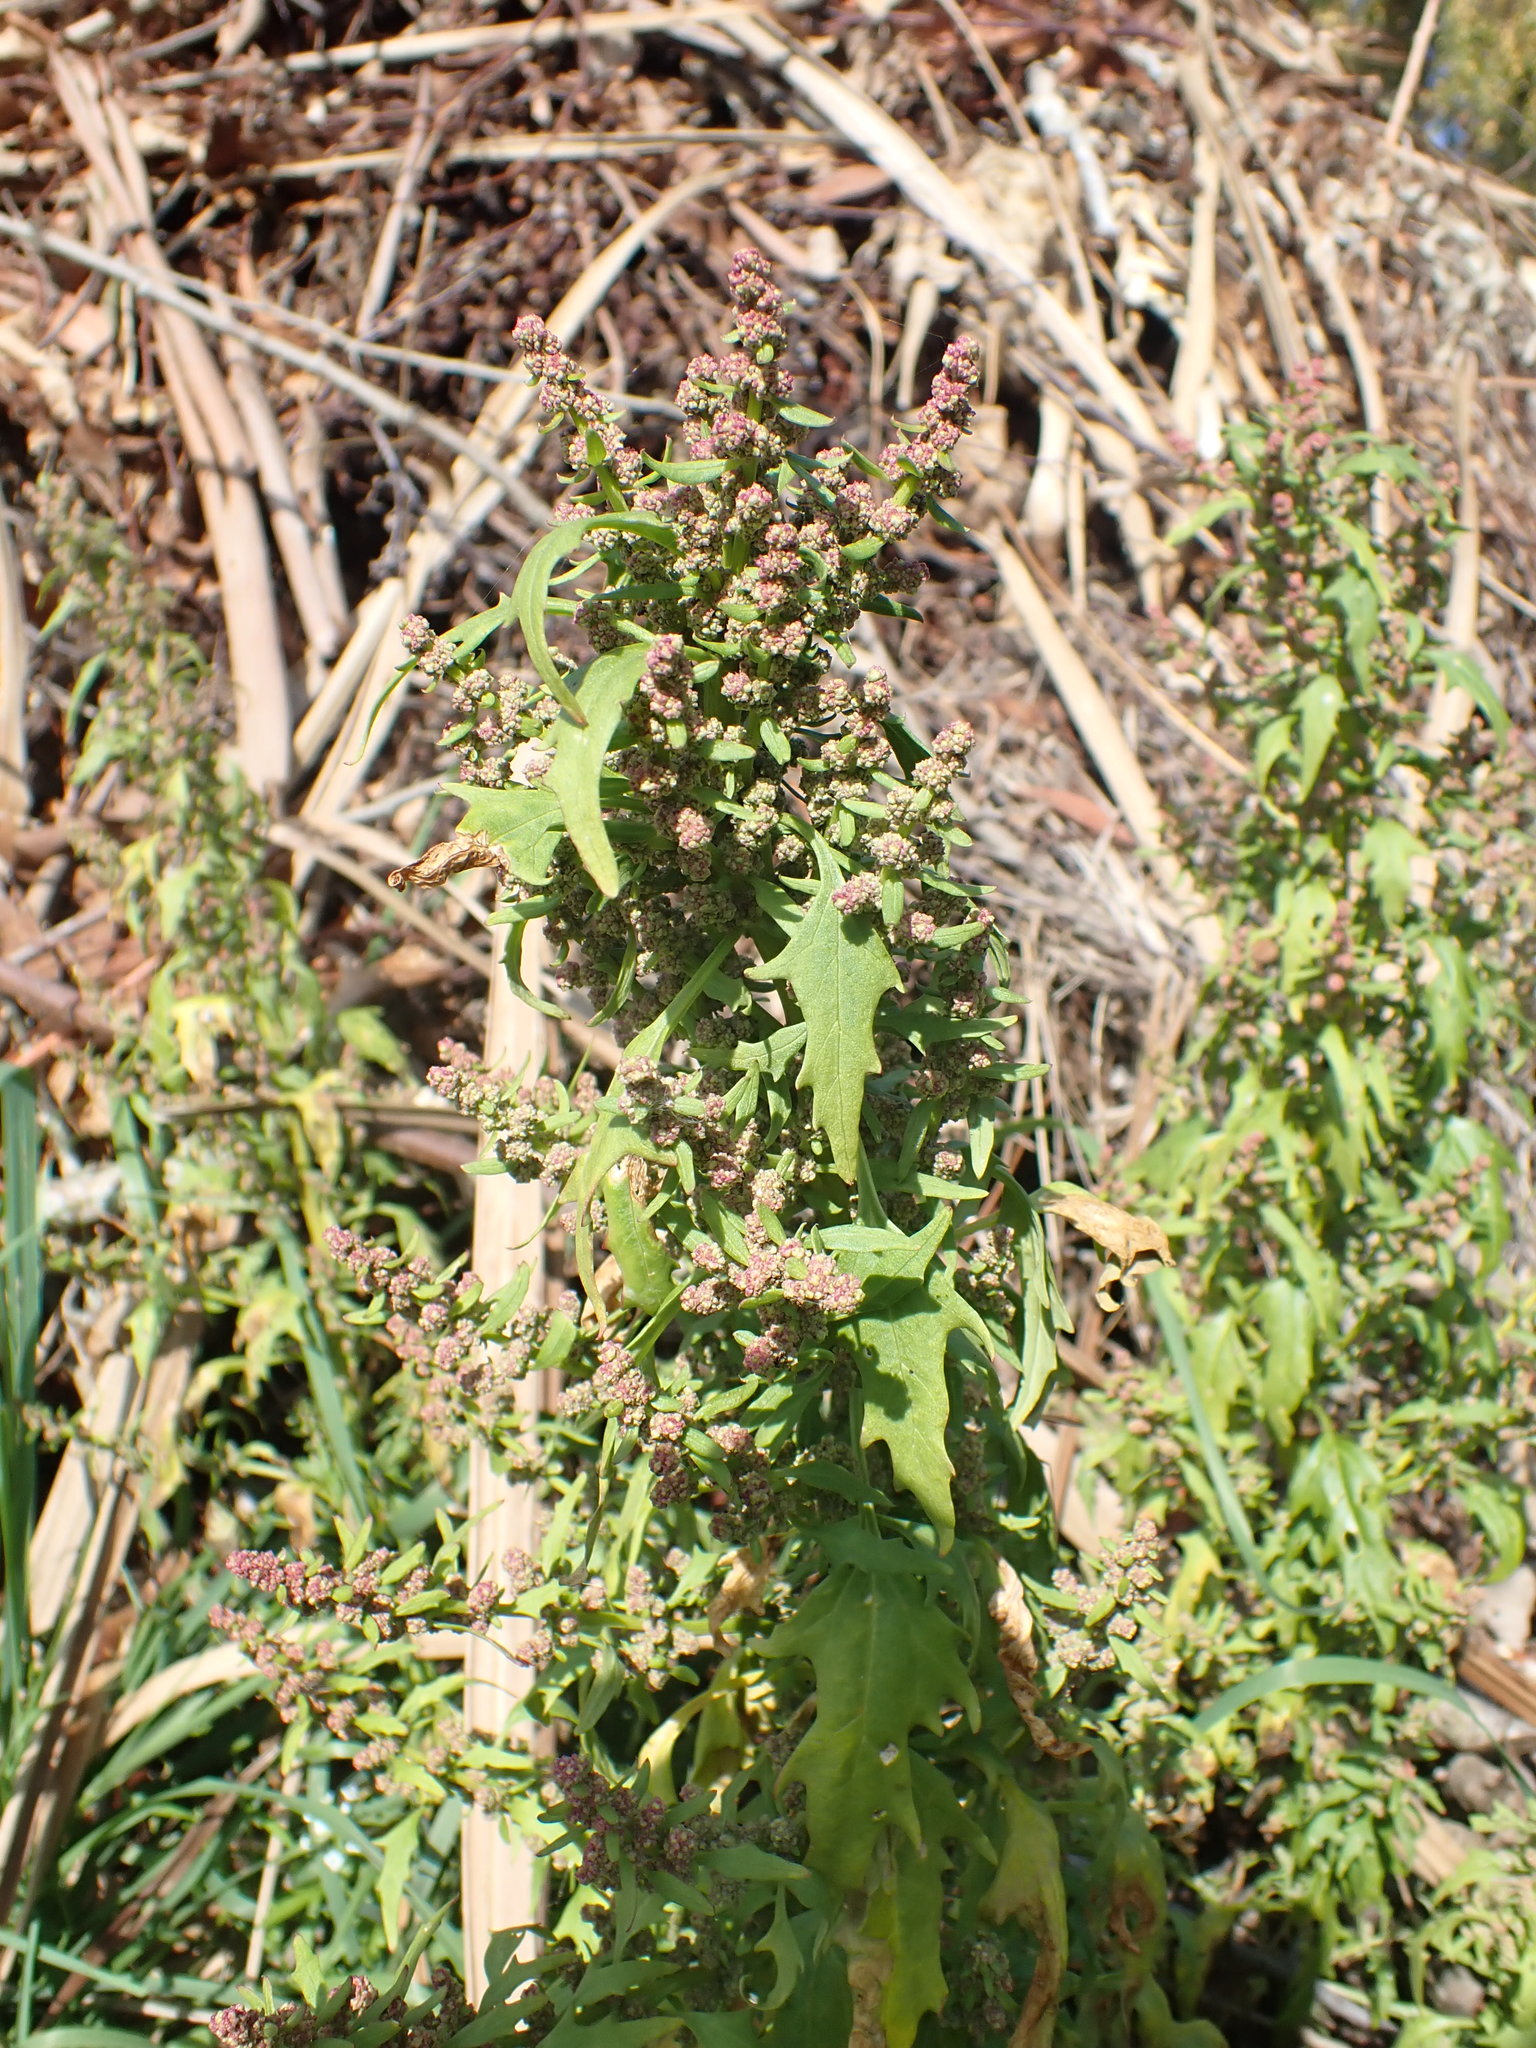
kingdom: Plantae
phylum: Tracheophyta
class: Magnoliopsida
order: Caryophyllales
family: Amaranthaceae
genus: Oxybasis
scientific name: Oxybasis rubra
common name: Red goosefoot
